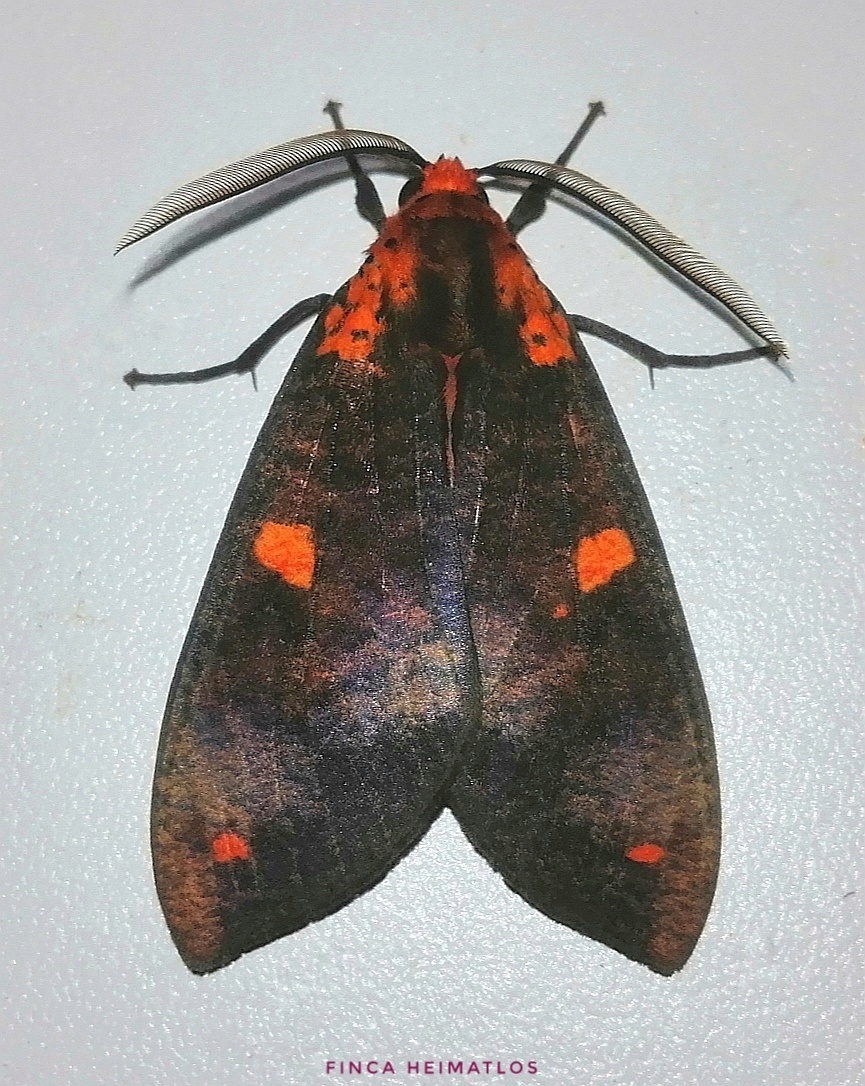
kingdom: Animalia
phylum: Arthropoda
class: Insecta
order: Lepidoptera
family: Erebidae
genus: Ammalo
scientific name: Ammalo helops
